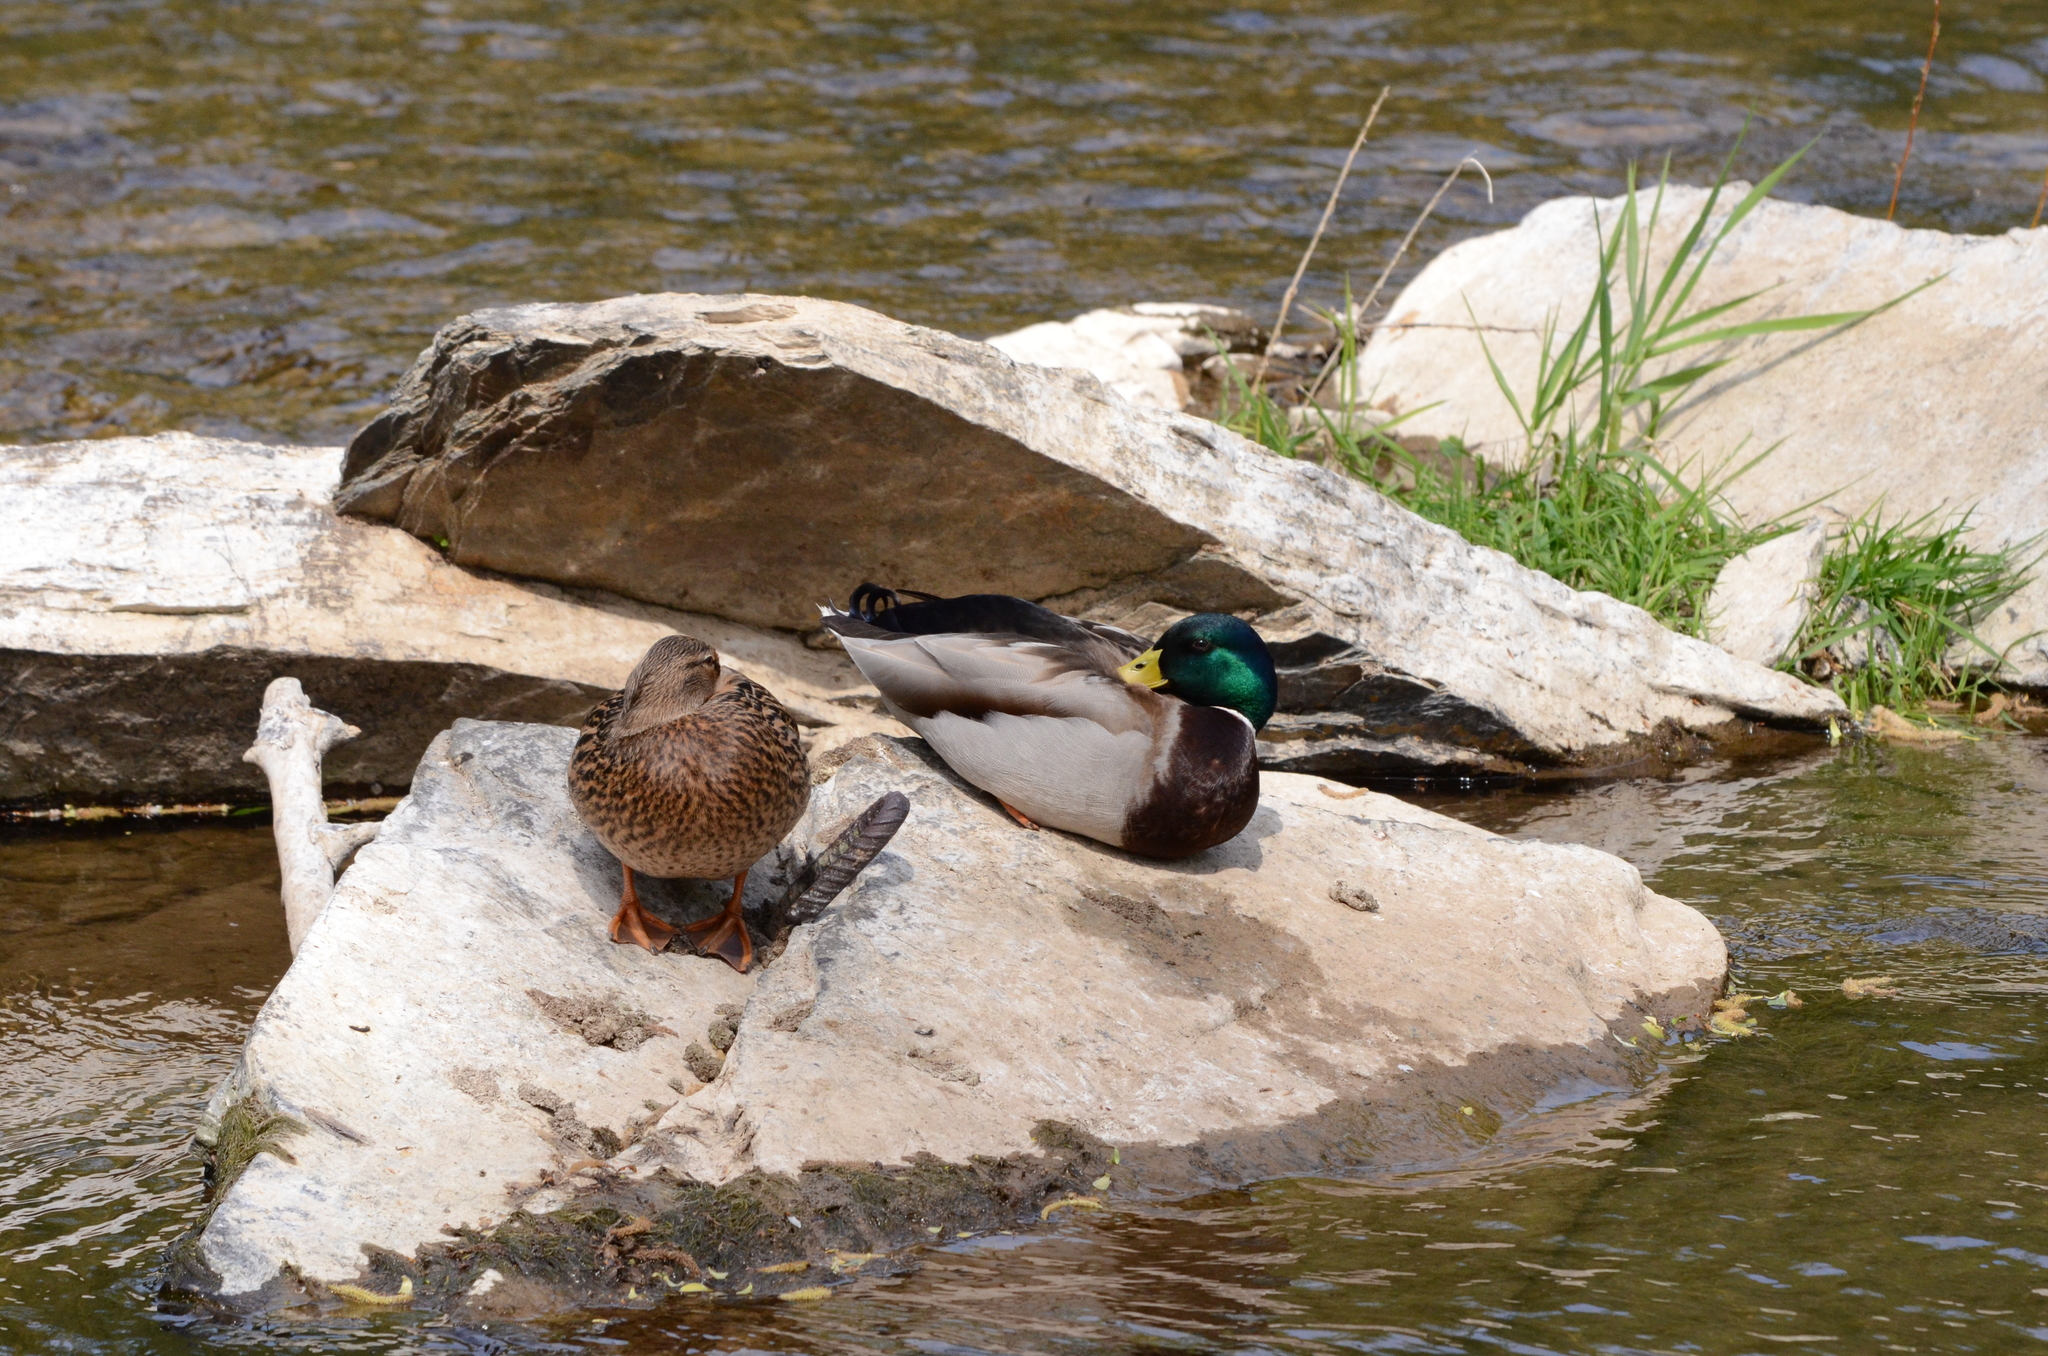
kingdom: Animalia
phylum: Chordata
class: Aves
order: Anseriformes
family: Anatidae
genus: Anas
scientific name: Anas platyrhynchos
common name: Mallard
